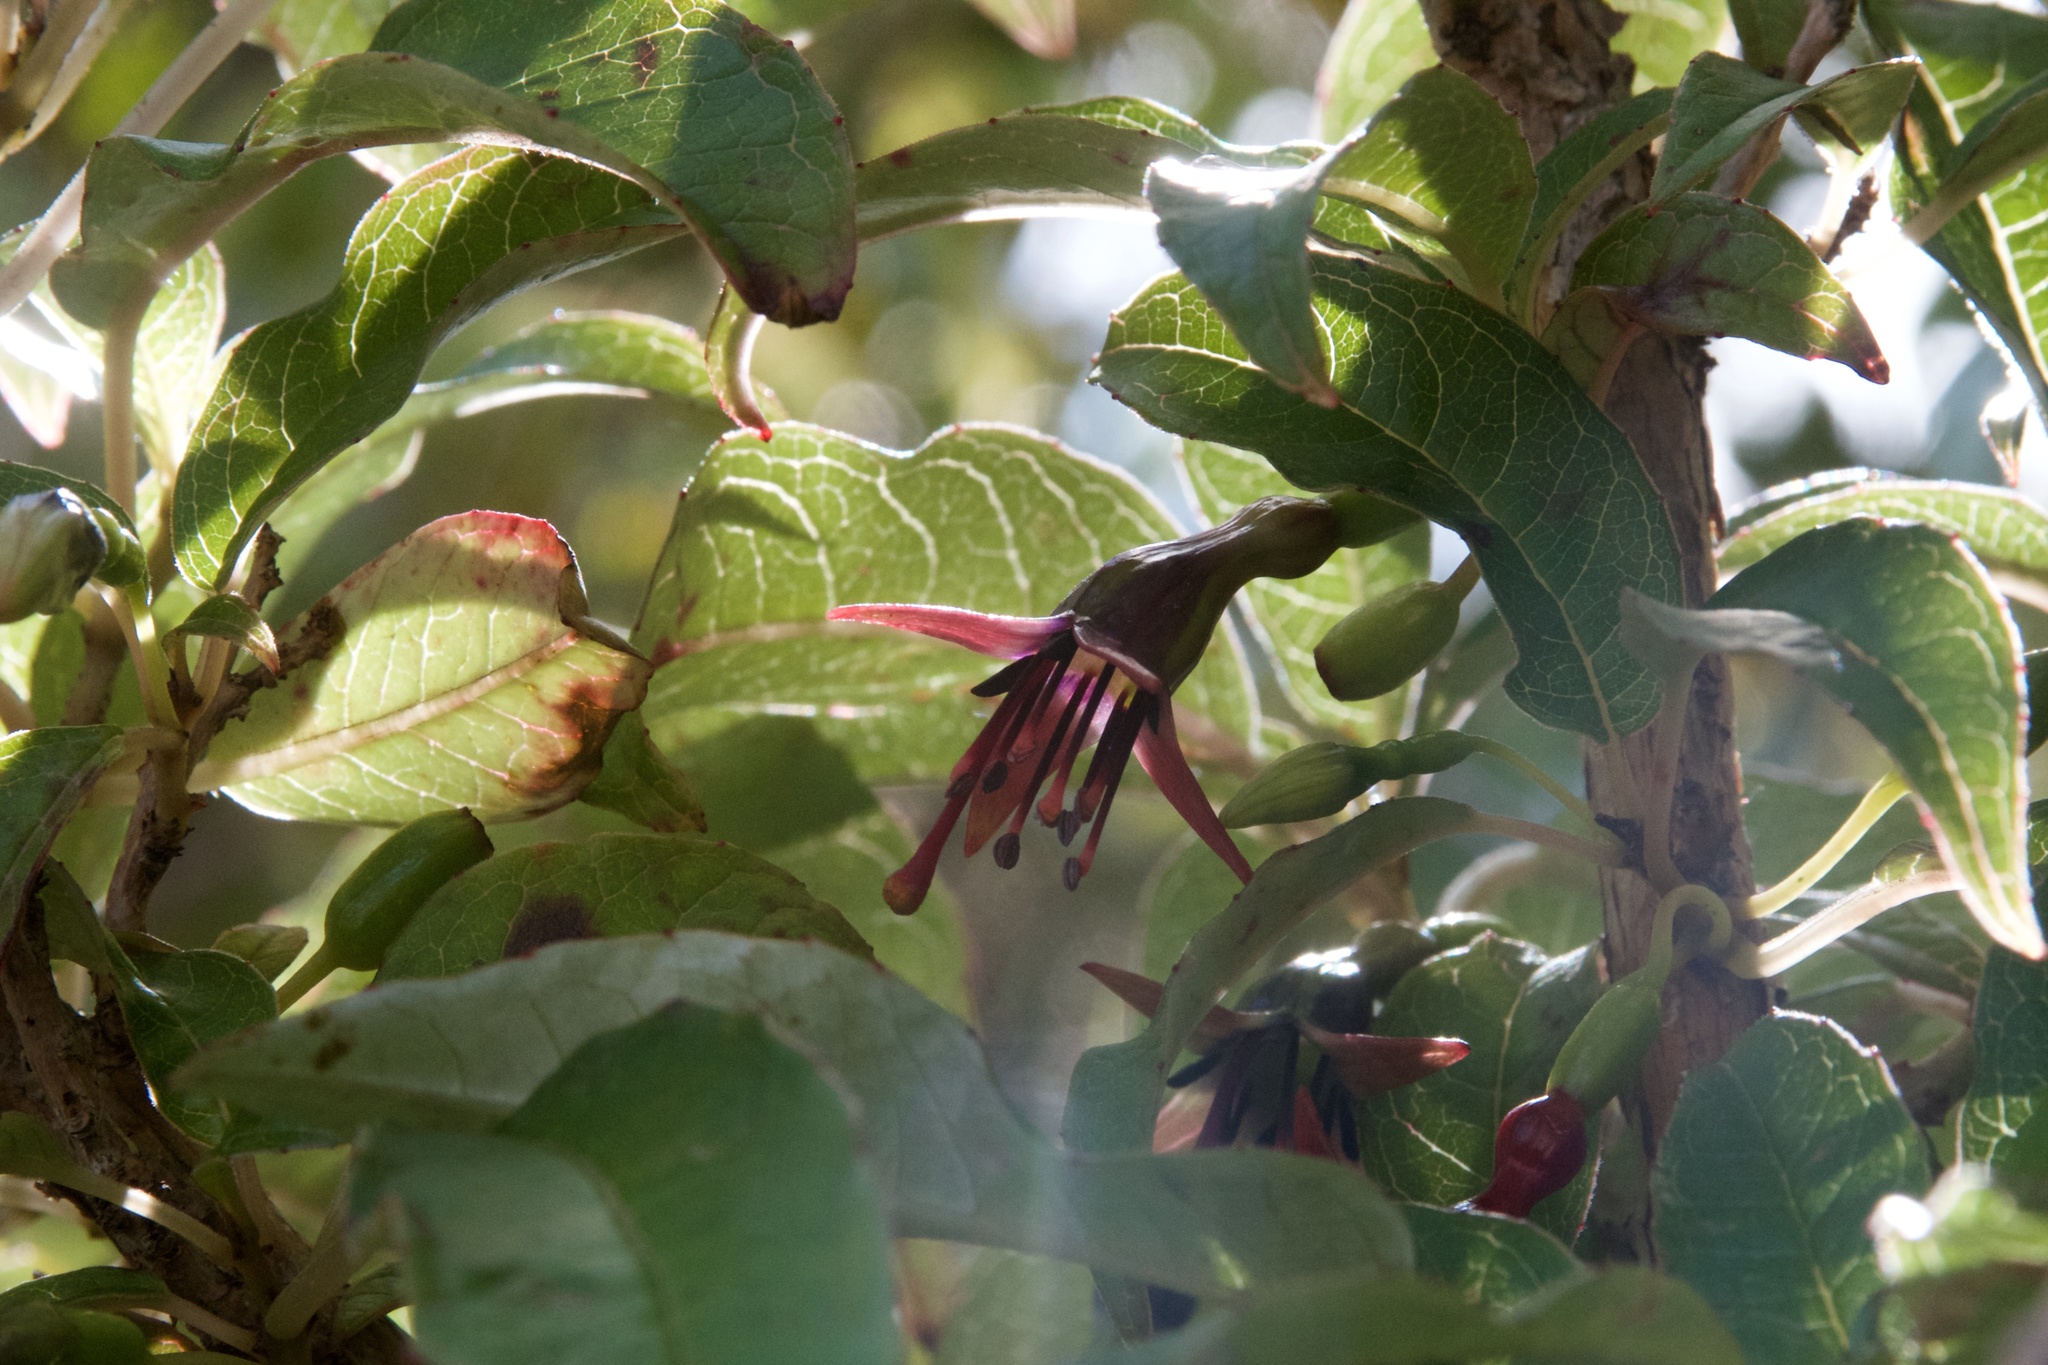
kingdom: Plantae
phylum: Tracheophyta
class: Magnoliopsida
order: Myrtales
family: Onagraceae
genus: Fuchsia
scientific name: Fuchsia excorticata
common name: Tree fuchsia
